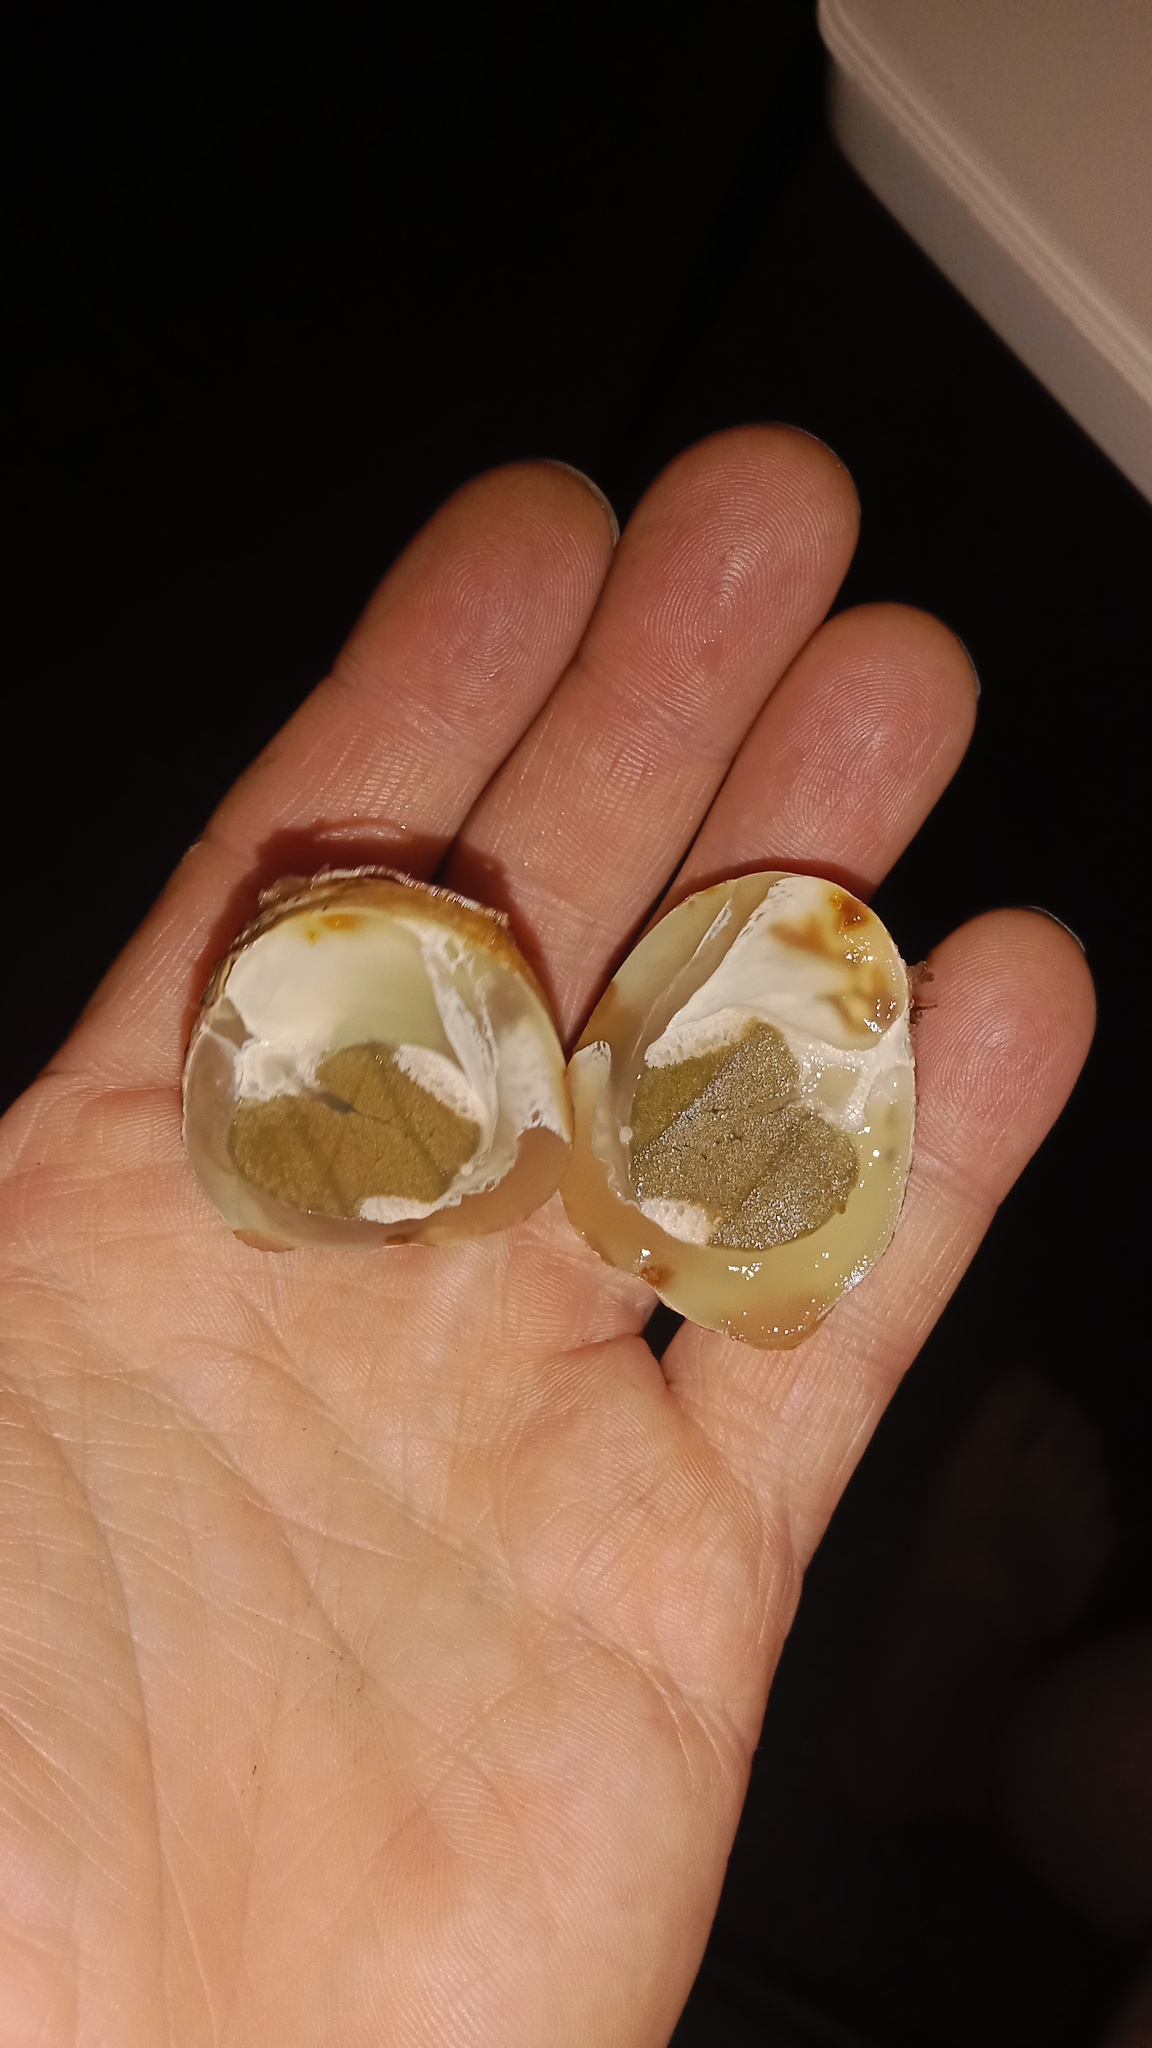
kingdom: Fungi
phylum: Basidiomycota
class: Agaricomycetes
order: Phallales
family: Phallaceae
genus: Clathrus
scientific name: Clathrus archeri
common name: Devil's fingers
